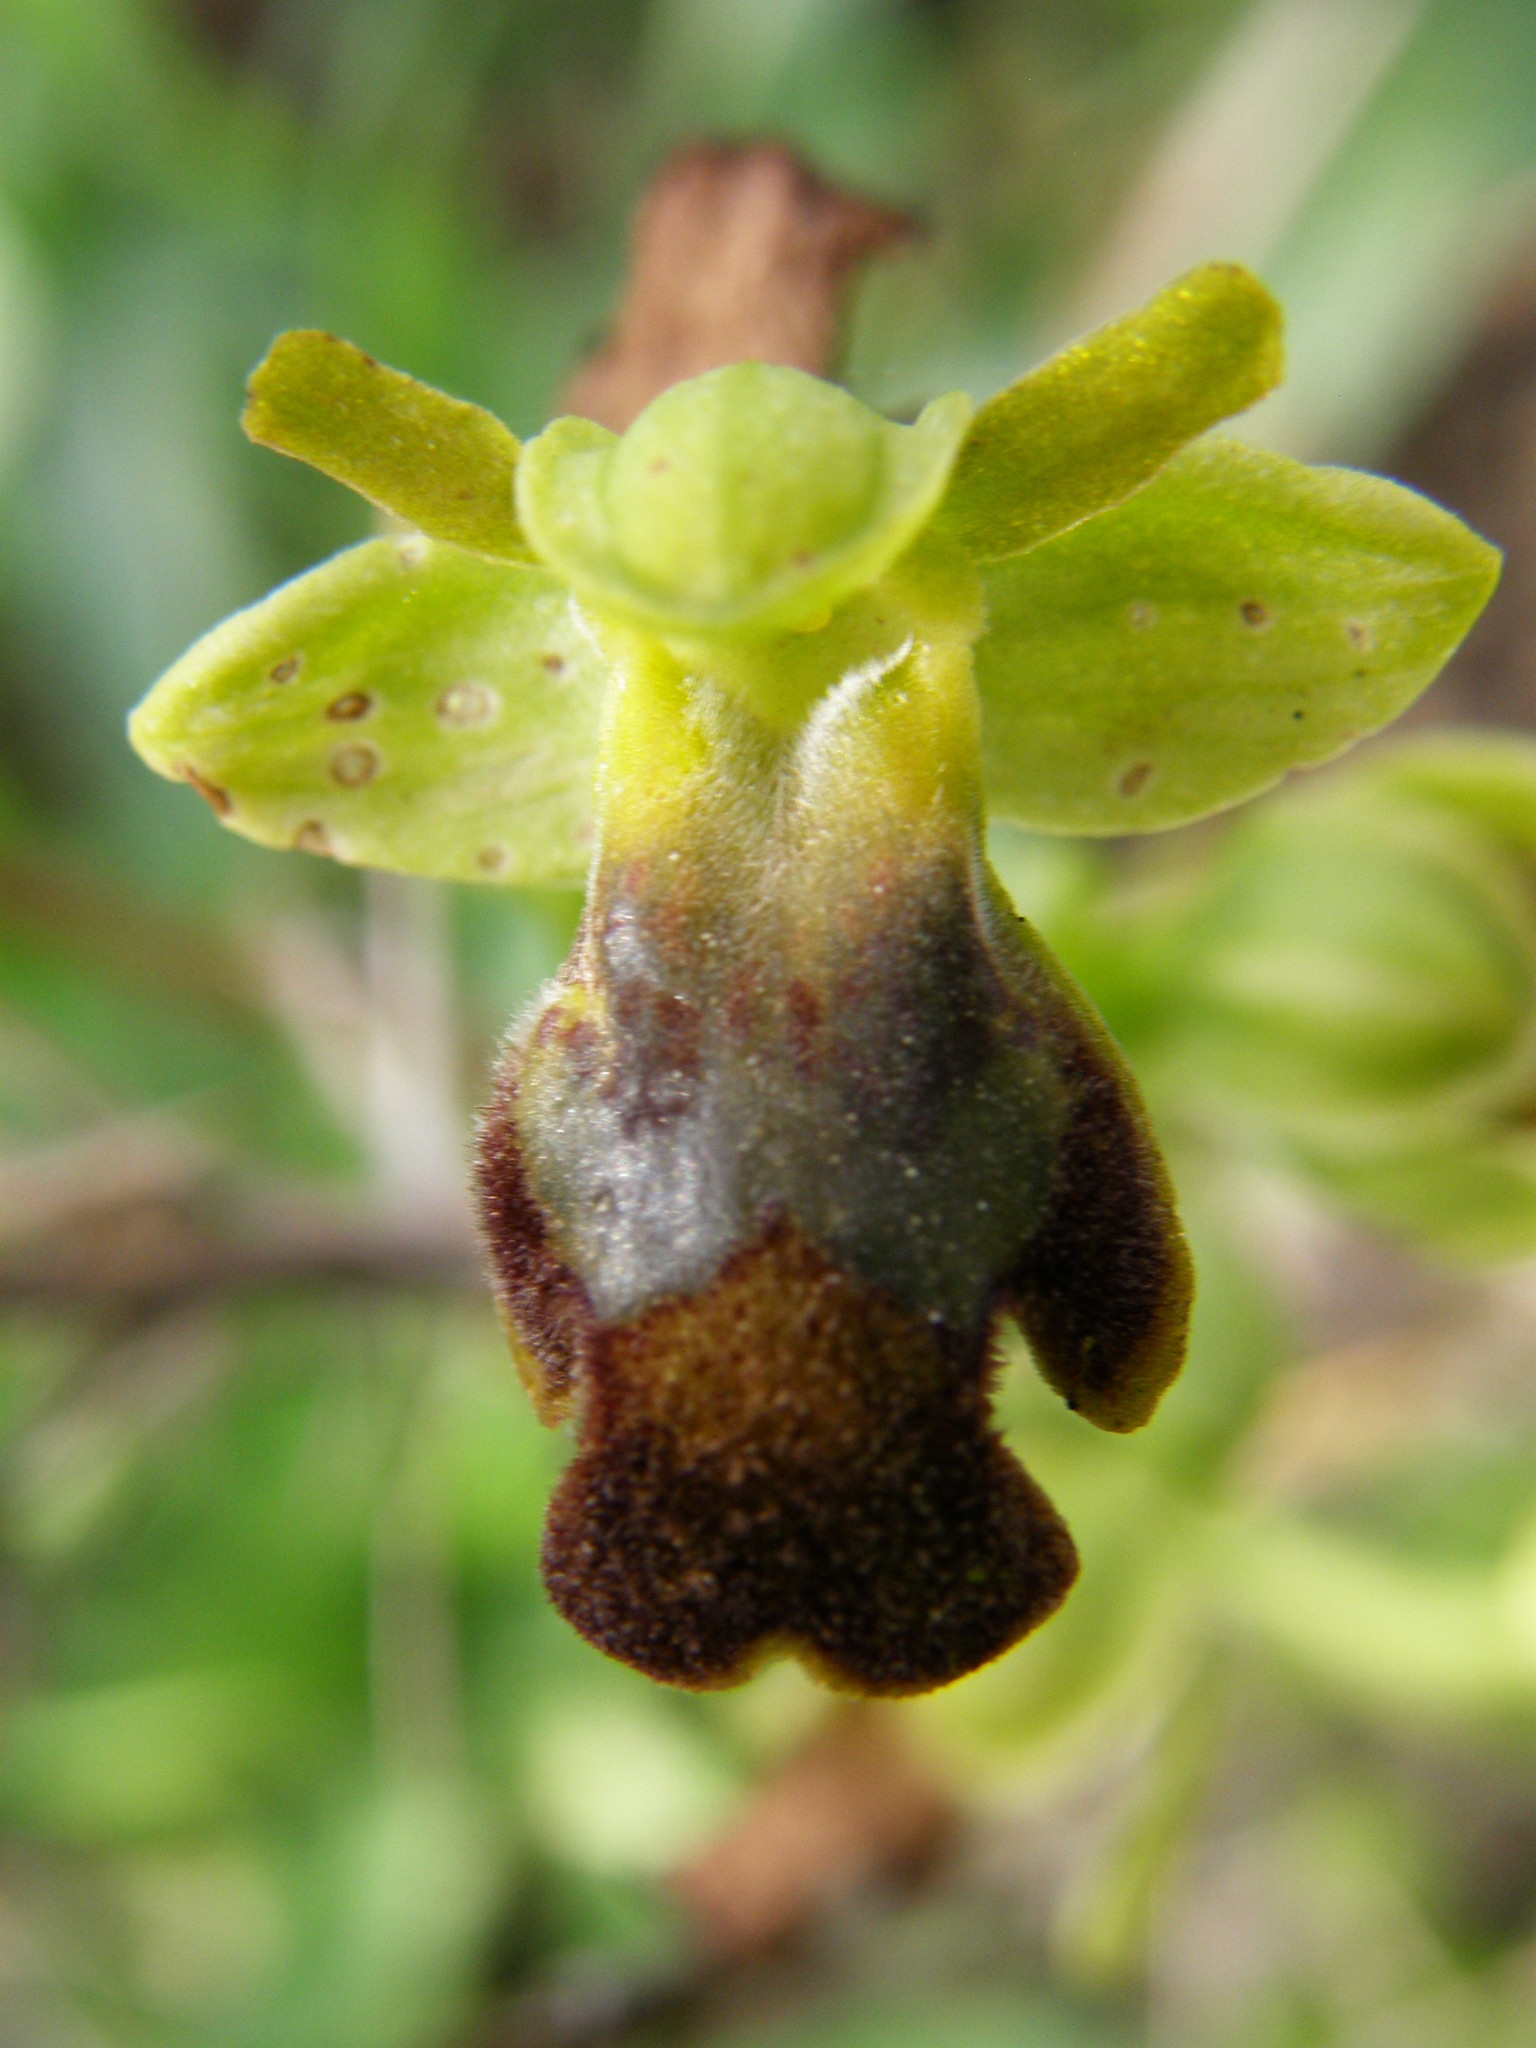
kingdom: Plantae
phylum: Tracheophyta
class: Liliopsida
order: Asparagales
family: Orchidaceae
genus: Ophrys
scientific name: Ophrys fusca
